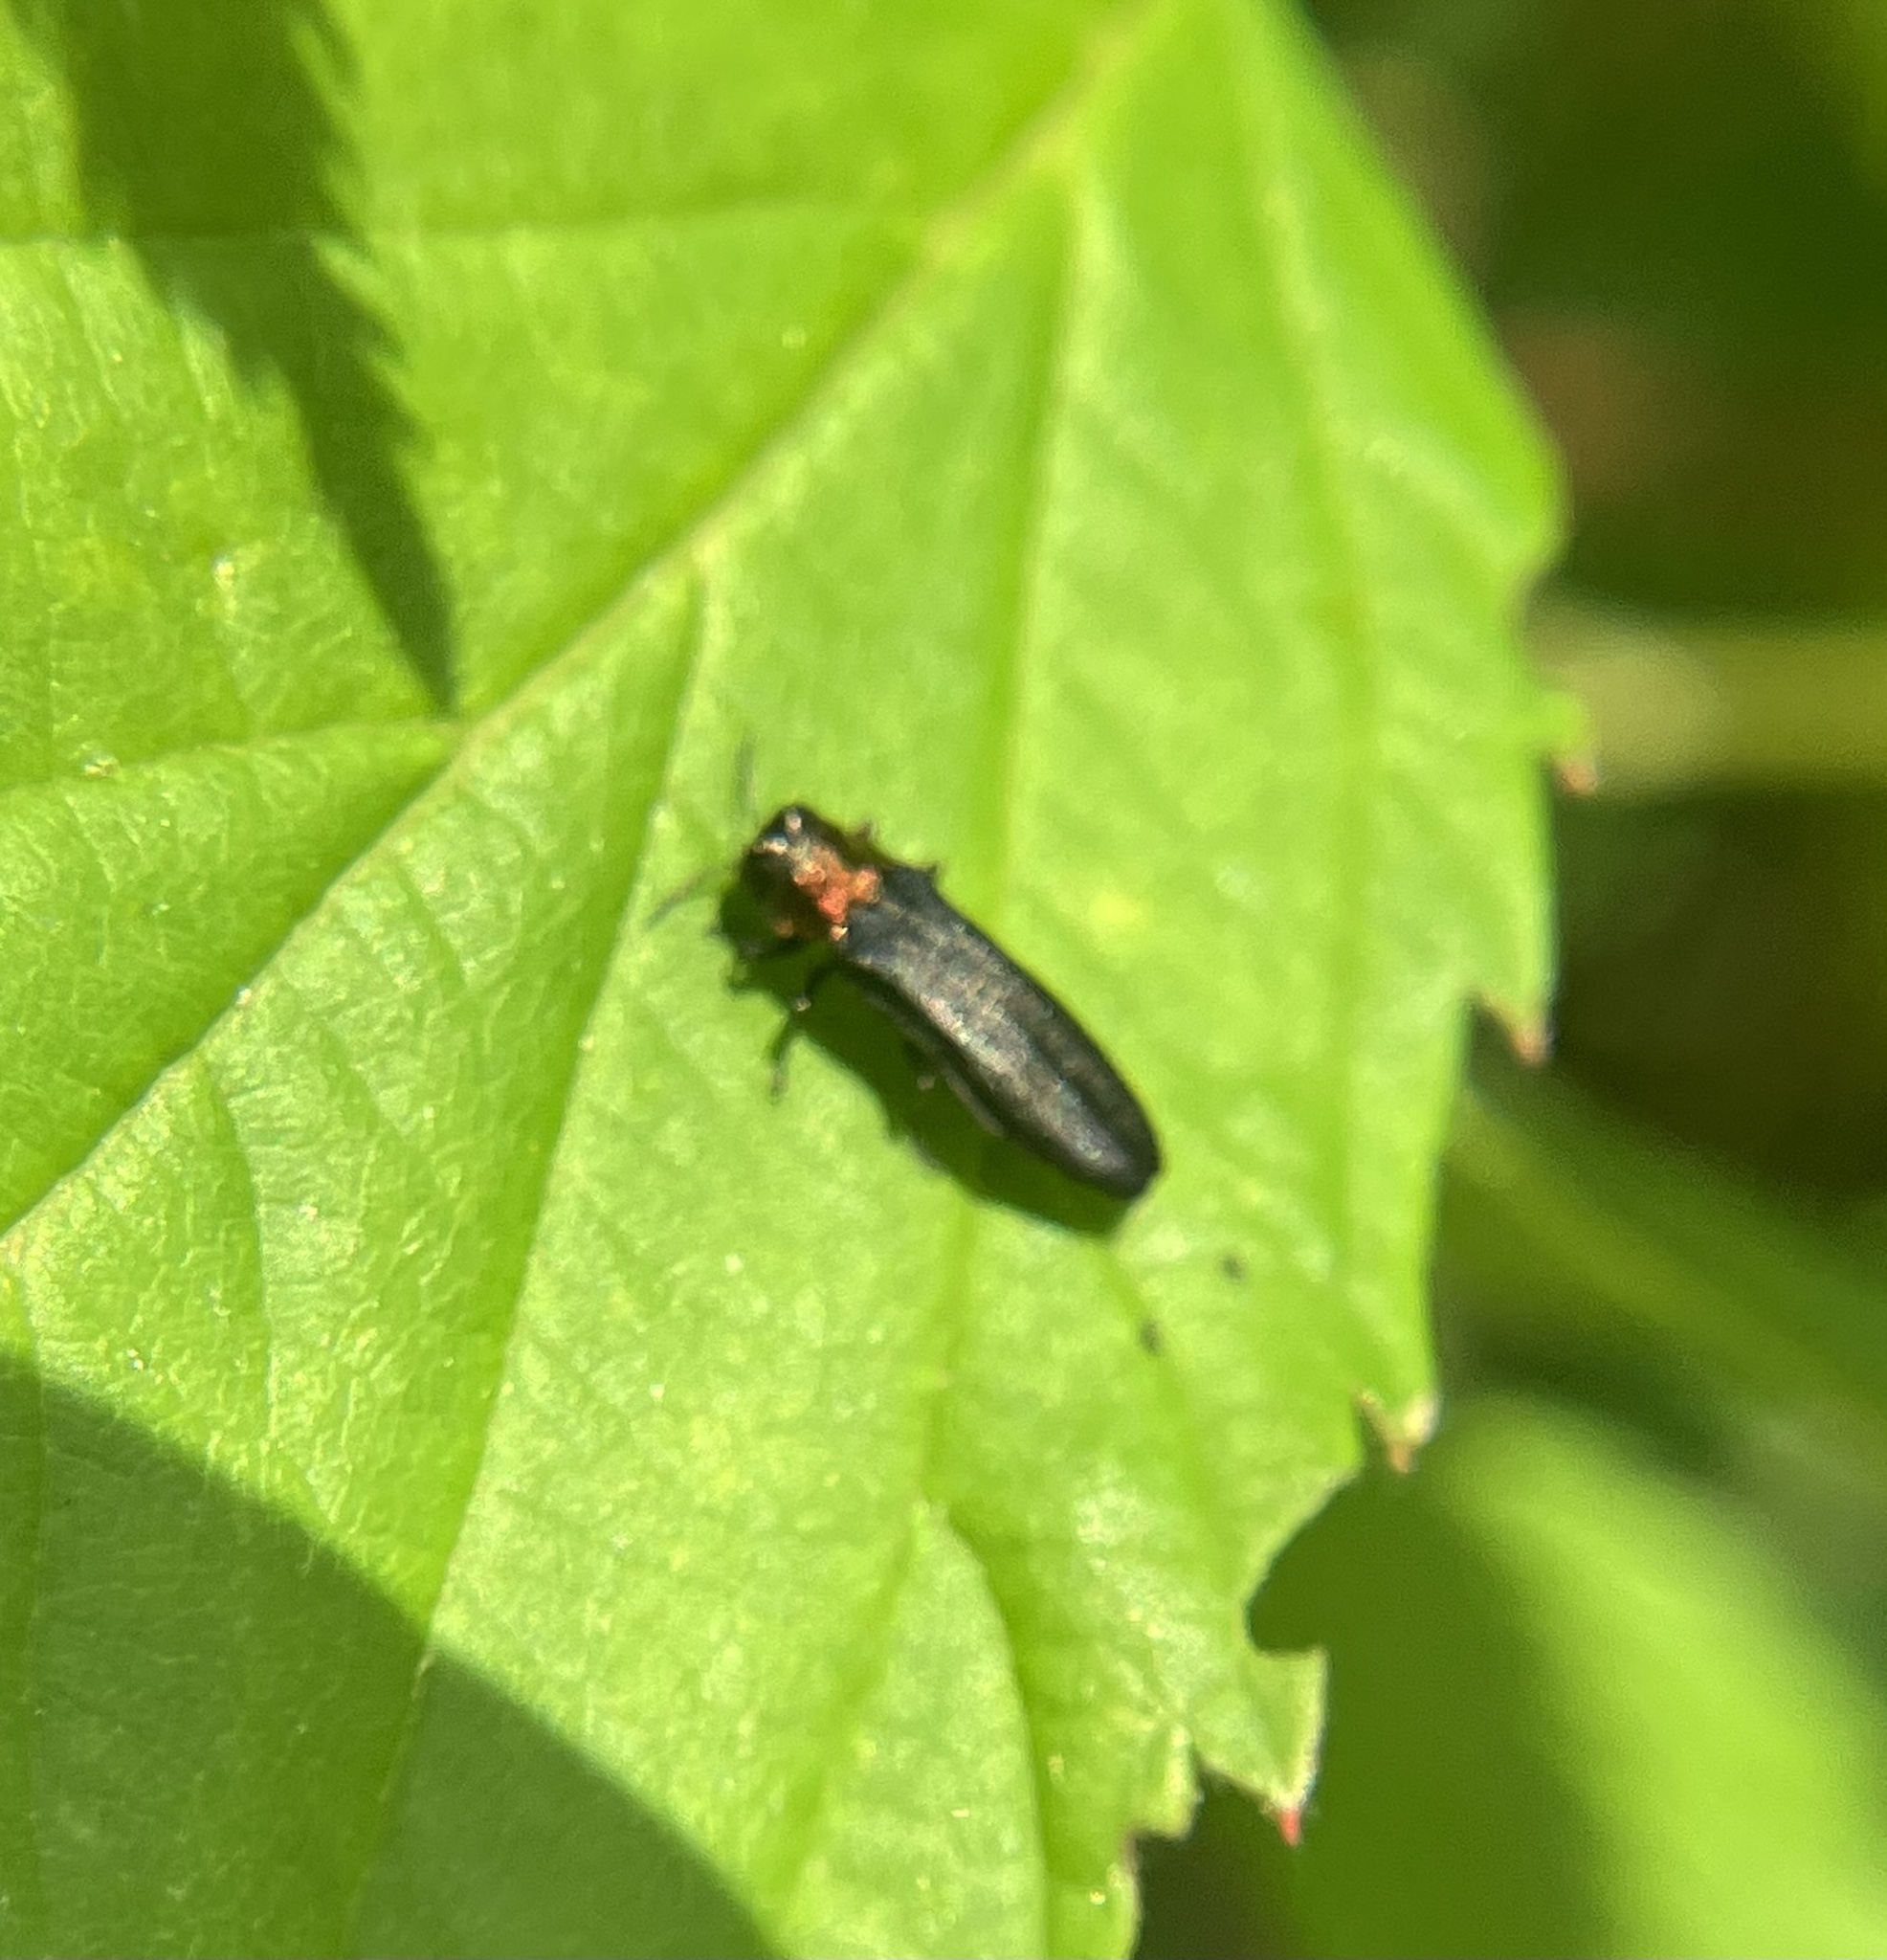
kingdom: Animalia
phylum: Arthropoda
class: Insecta
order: Coleoptera
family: Buprestidae
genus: Agrilus
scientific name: Agrilus ruficollis
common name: Red-necked cane borer beetle
